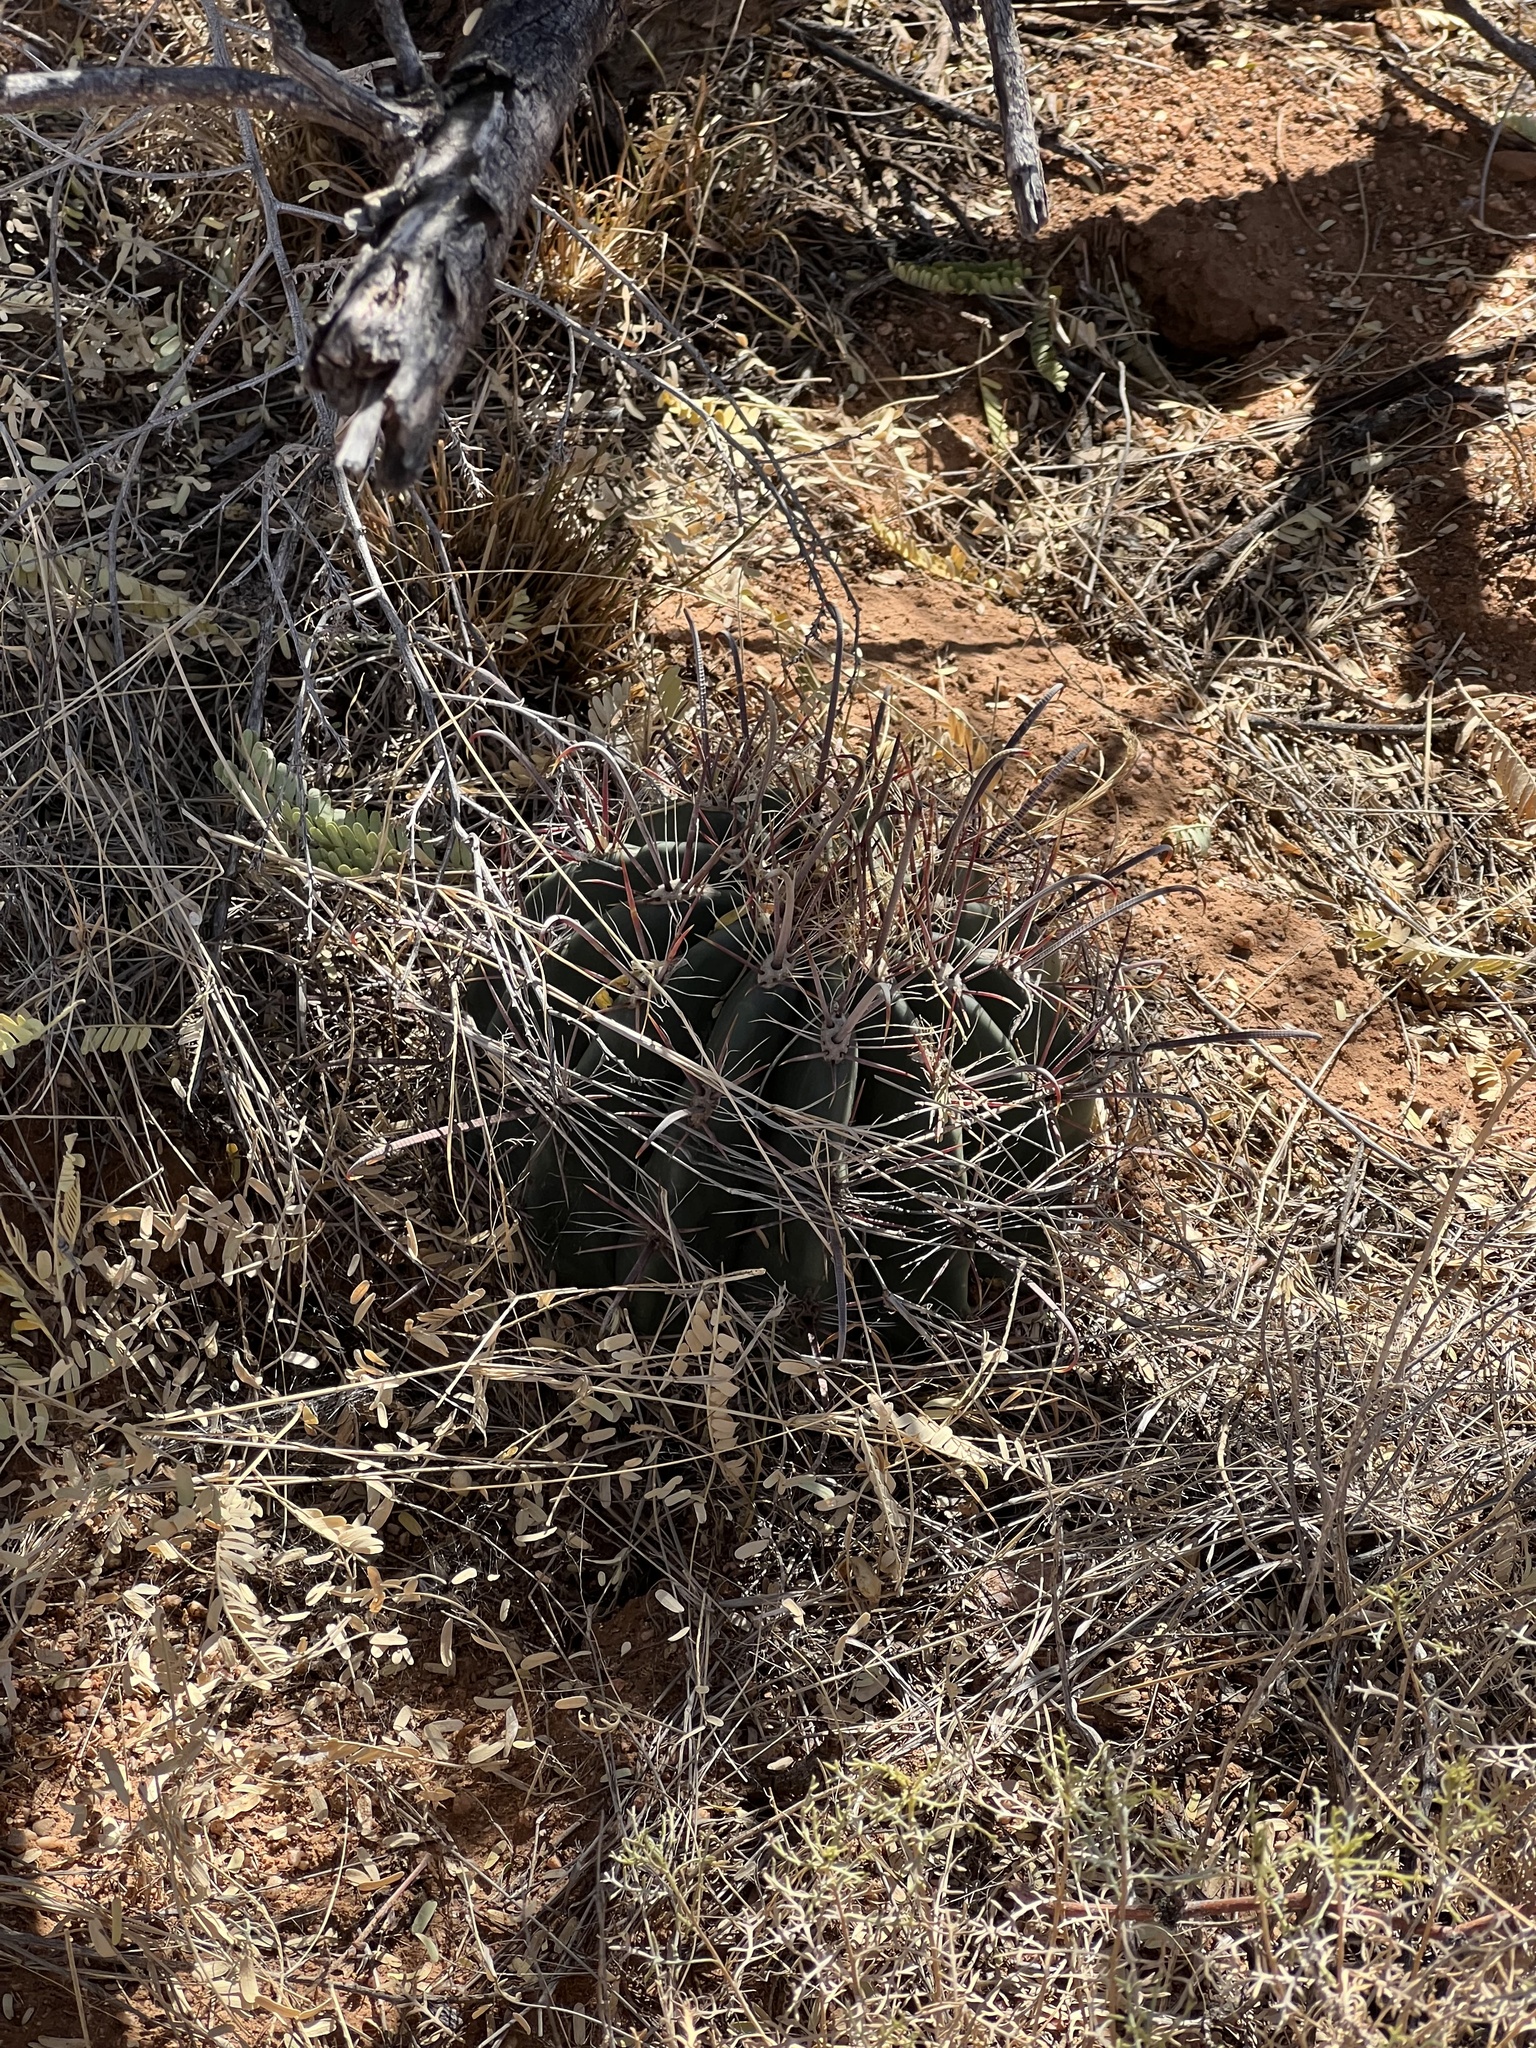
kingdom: Plantae
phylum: Tracheophyta
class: Magnoliopsida
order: Caryophyllales
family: Cactaceae
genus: Ferocactus
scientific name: Ferocactus wislizeni
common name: Candy barrel cactus
